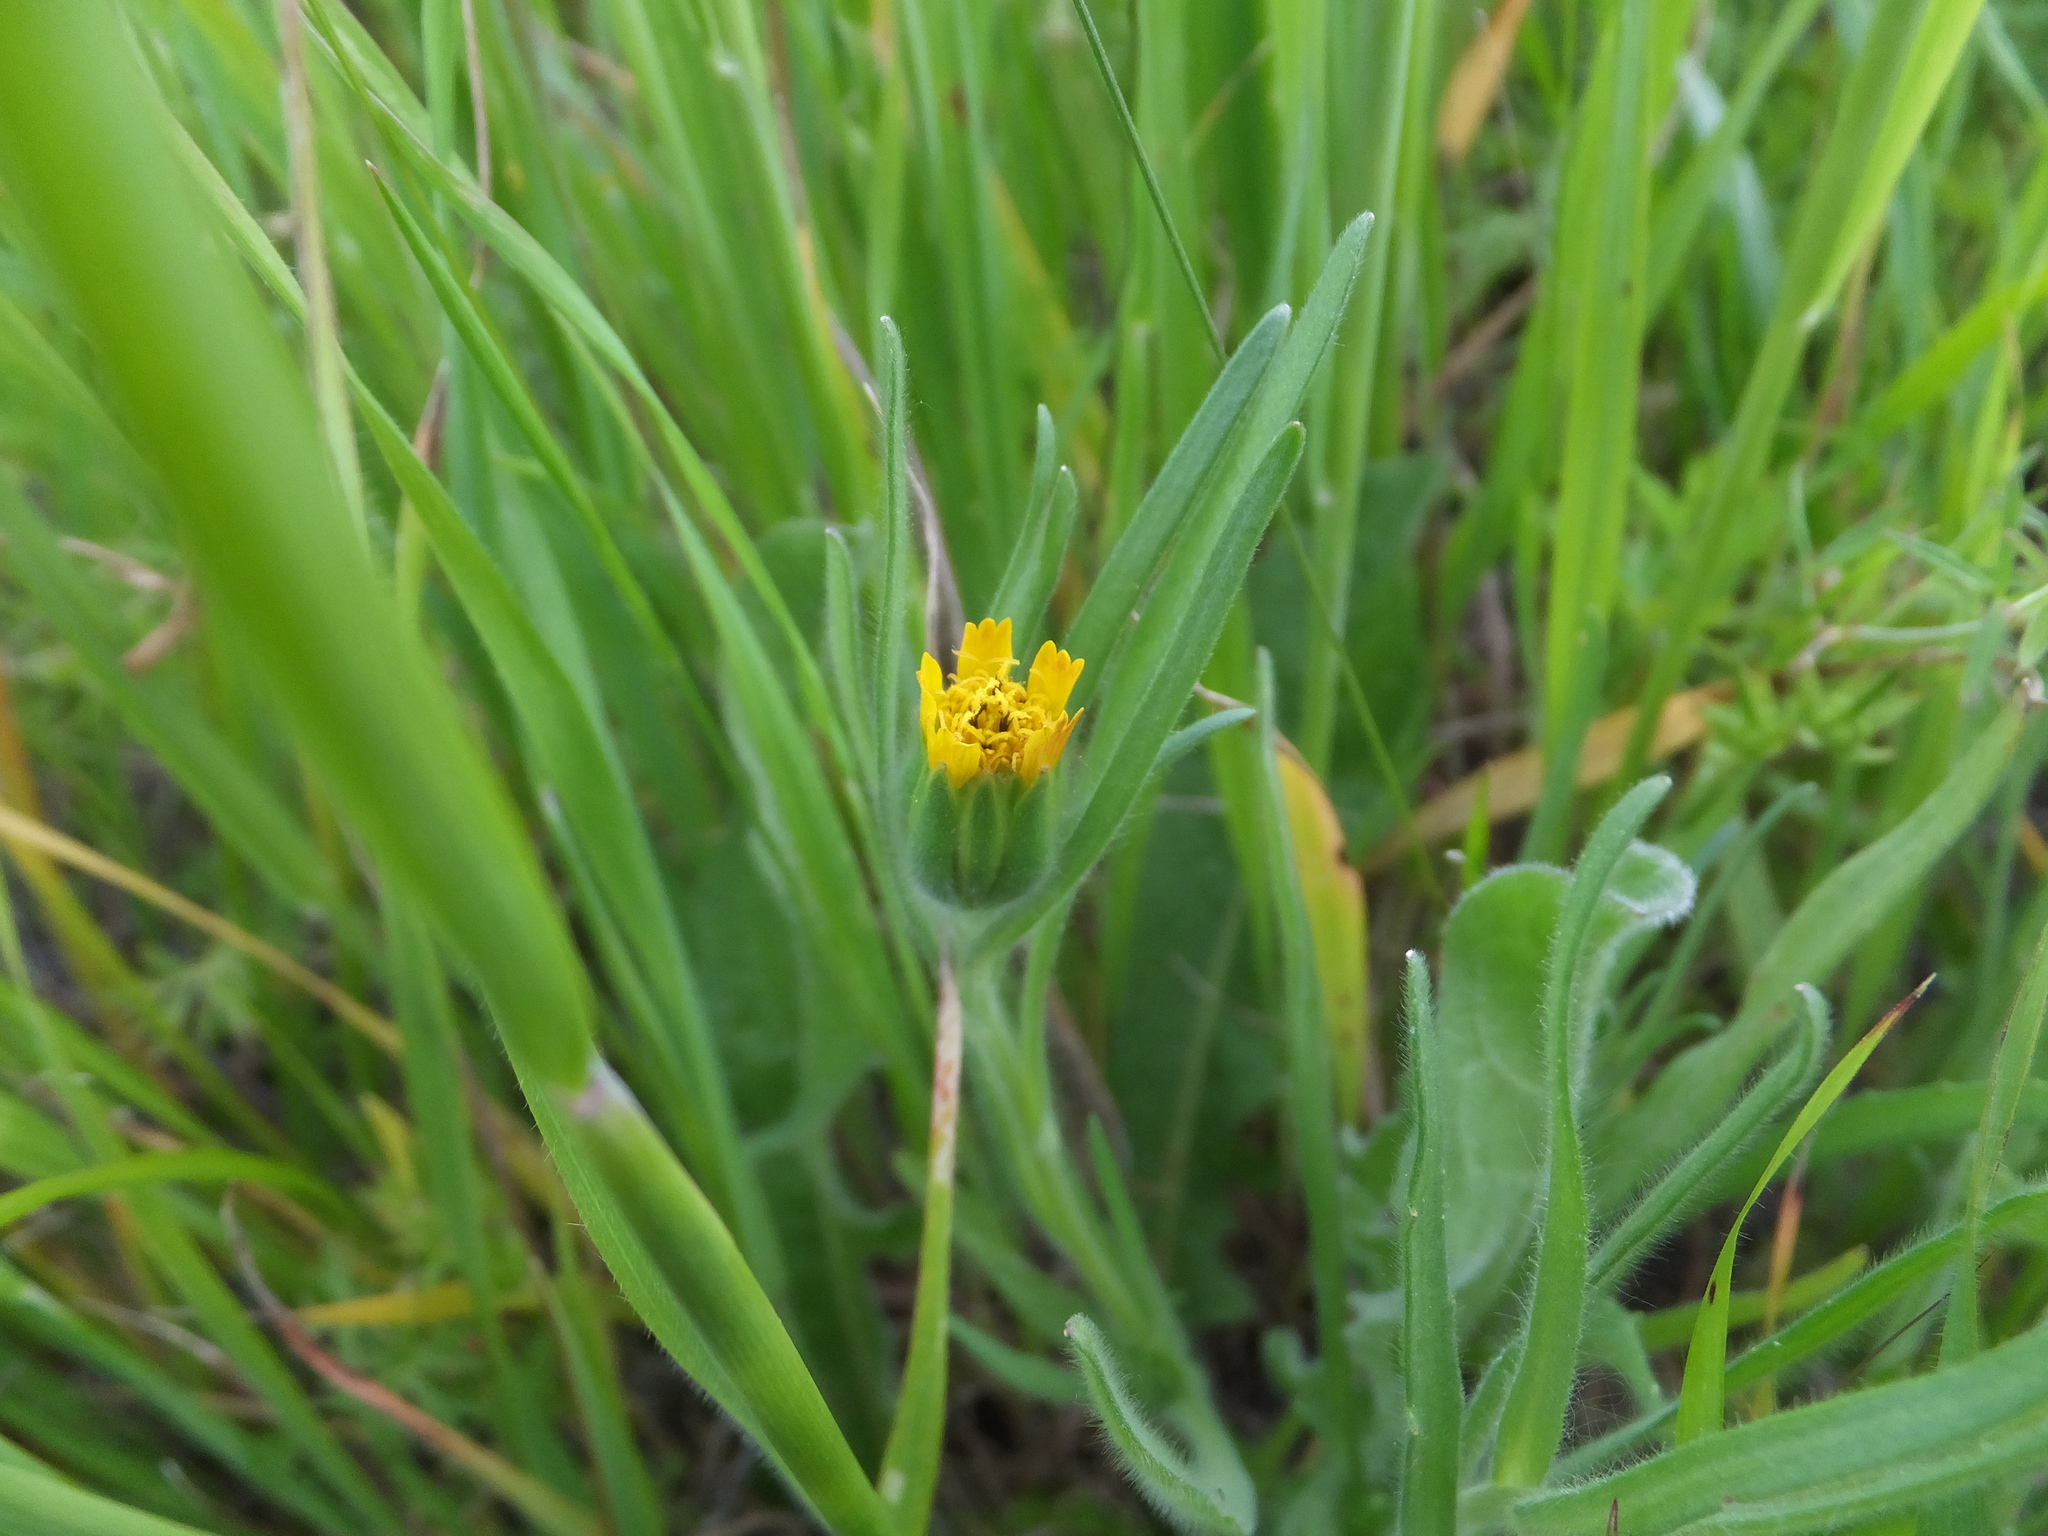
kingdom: Plantae
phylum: Tracheophyta
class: Magnoliopsida
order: Asterales
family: Asteraceae
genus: Achyrachaena
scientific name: Achyrachaena mollis
